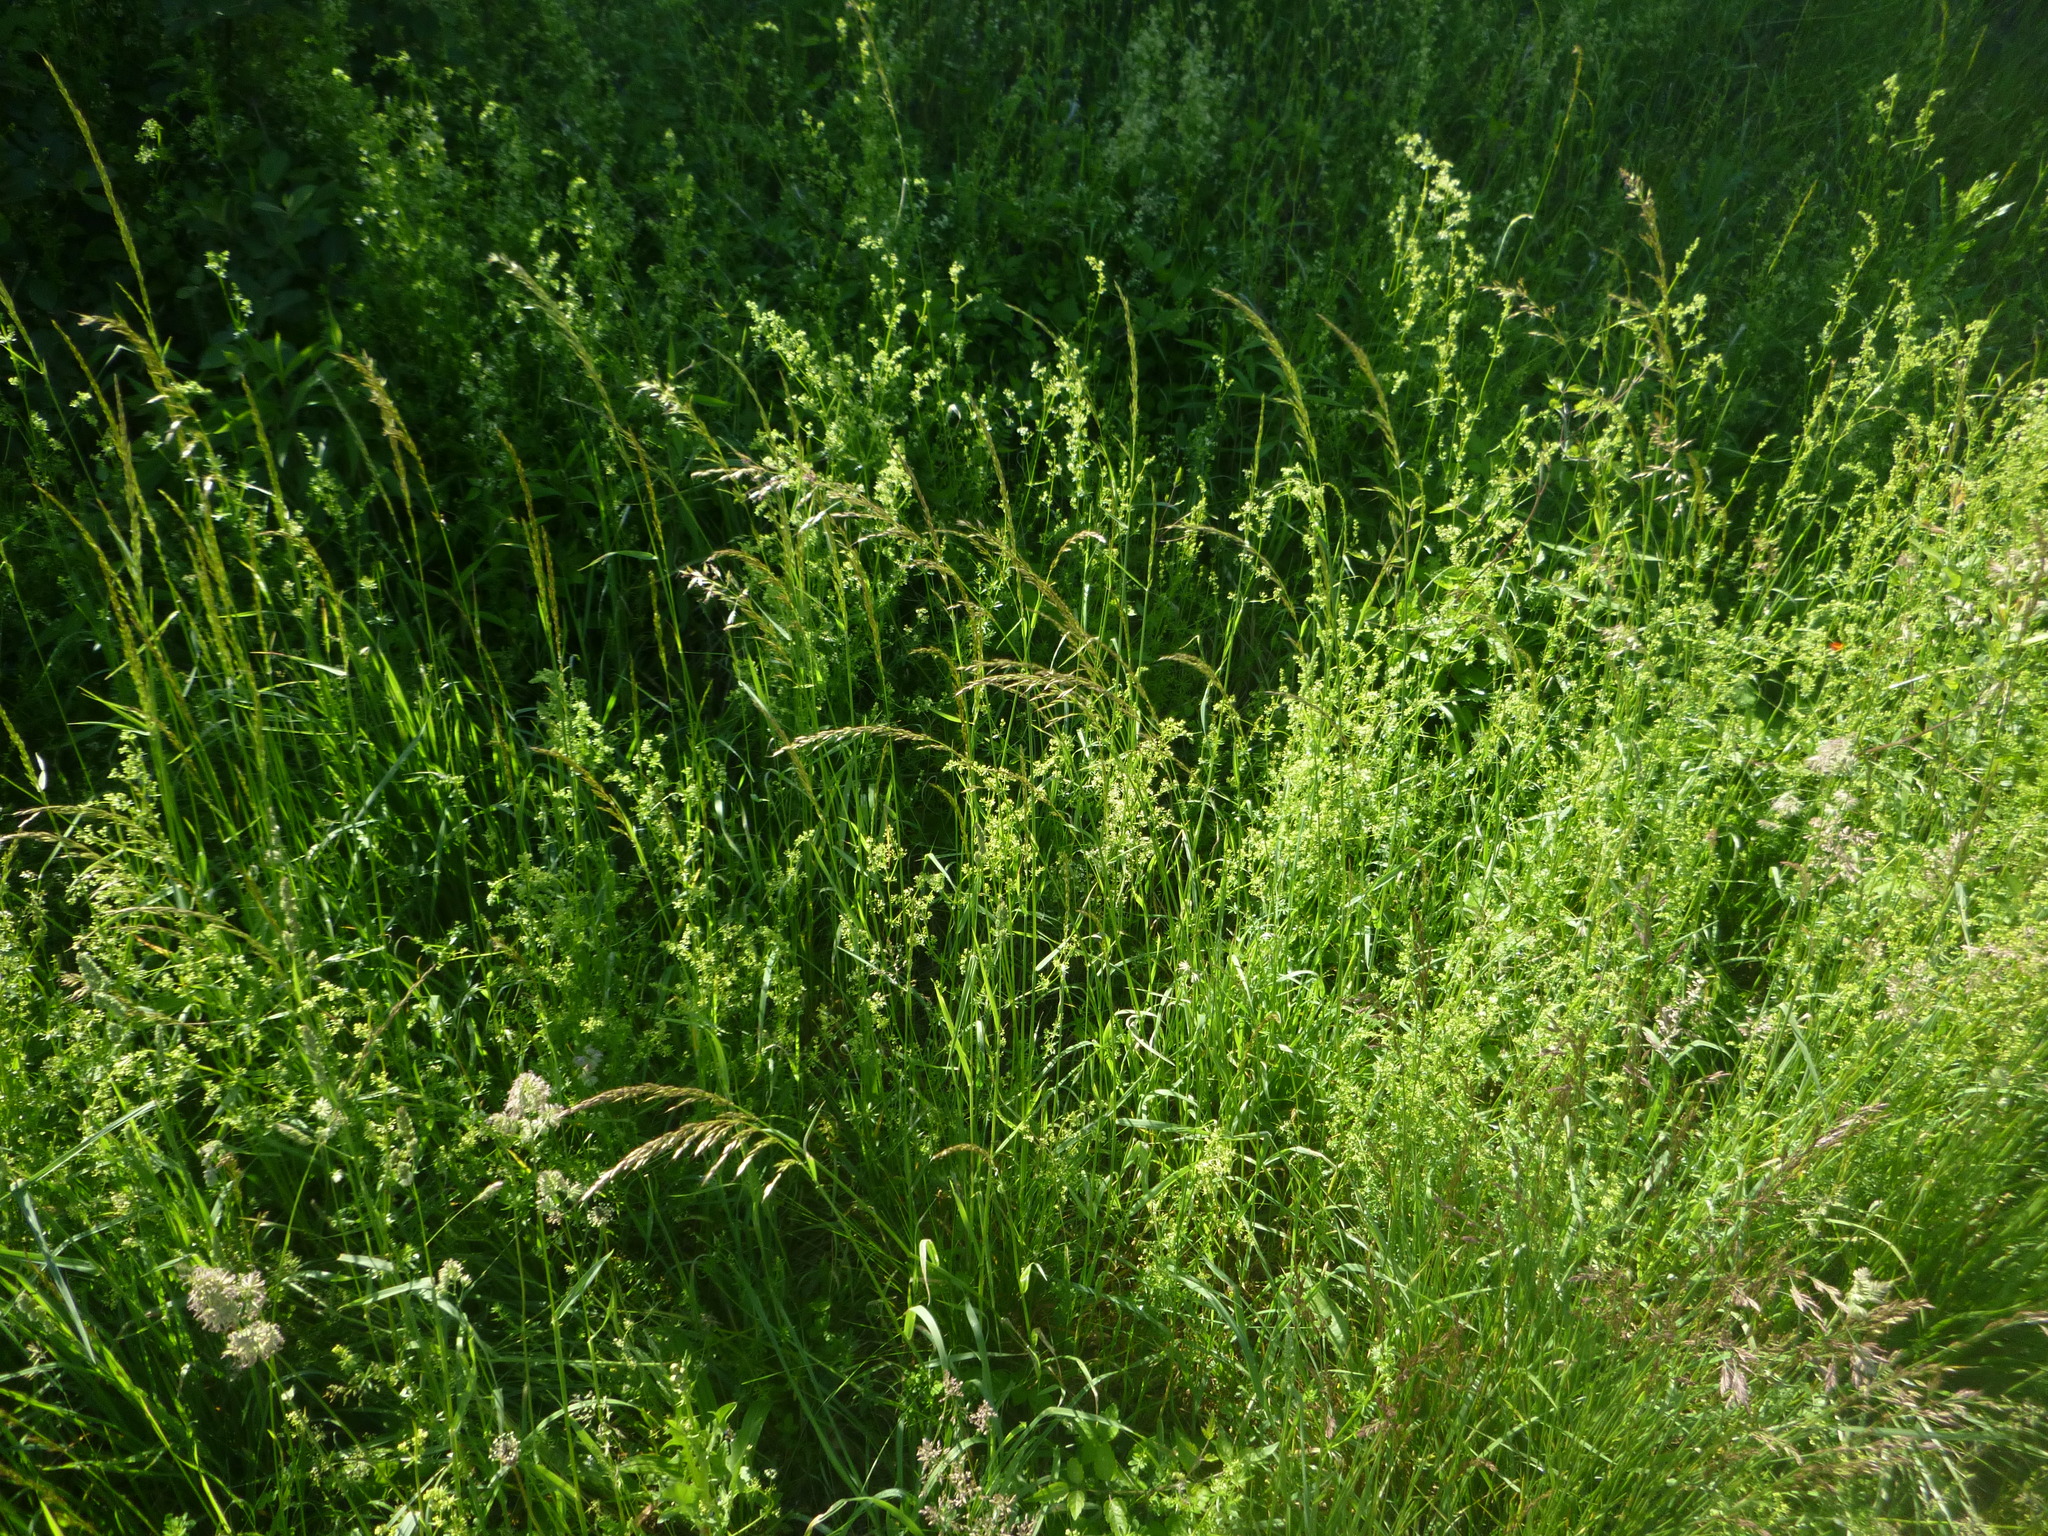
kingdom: Plantae
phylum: Tracheophyta
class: Liliopsida
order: Poales
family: Poaceae
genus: Arrhenatherum
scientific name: Arrhenatherum elatius
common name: Tall oatgrass
